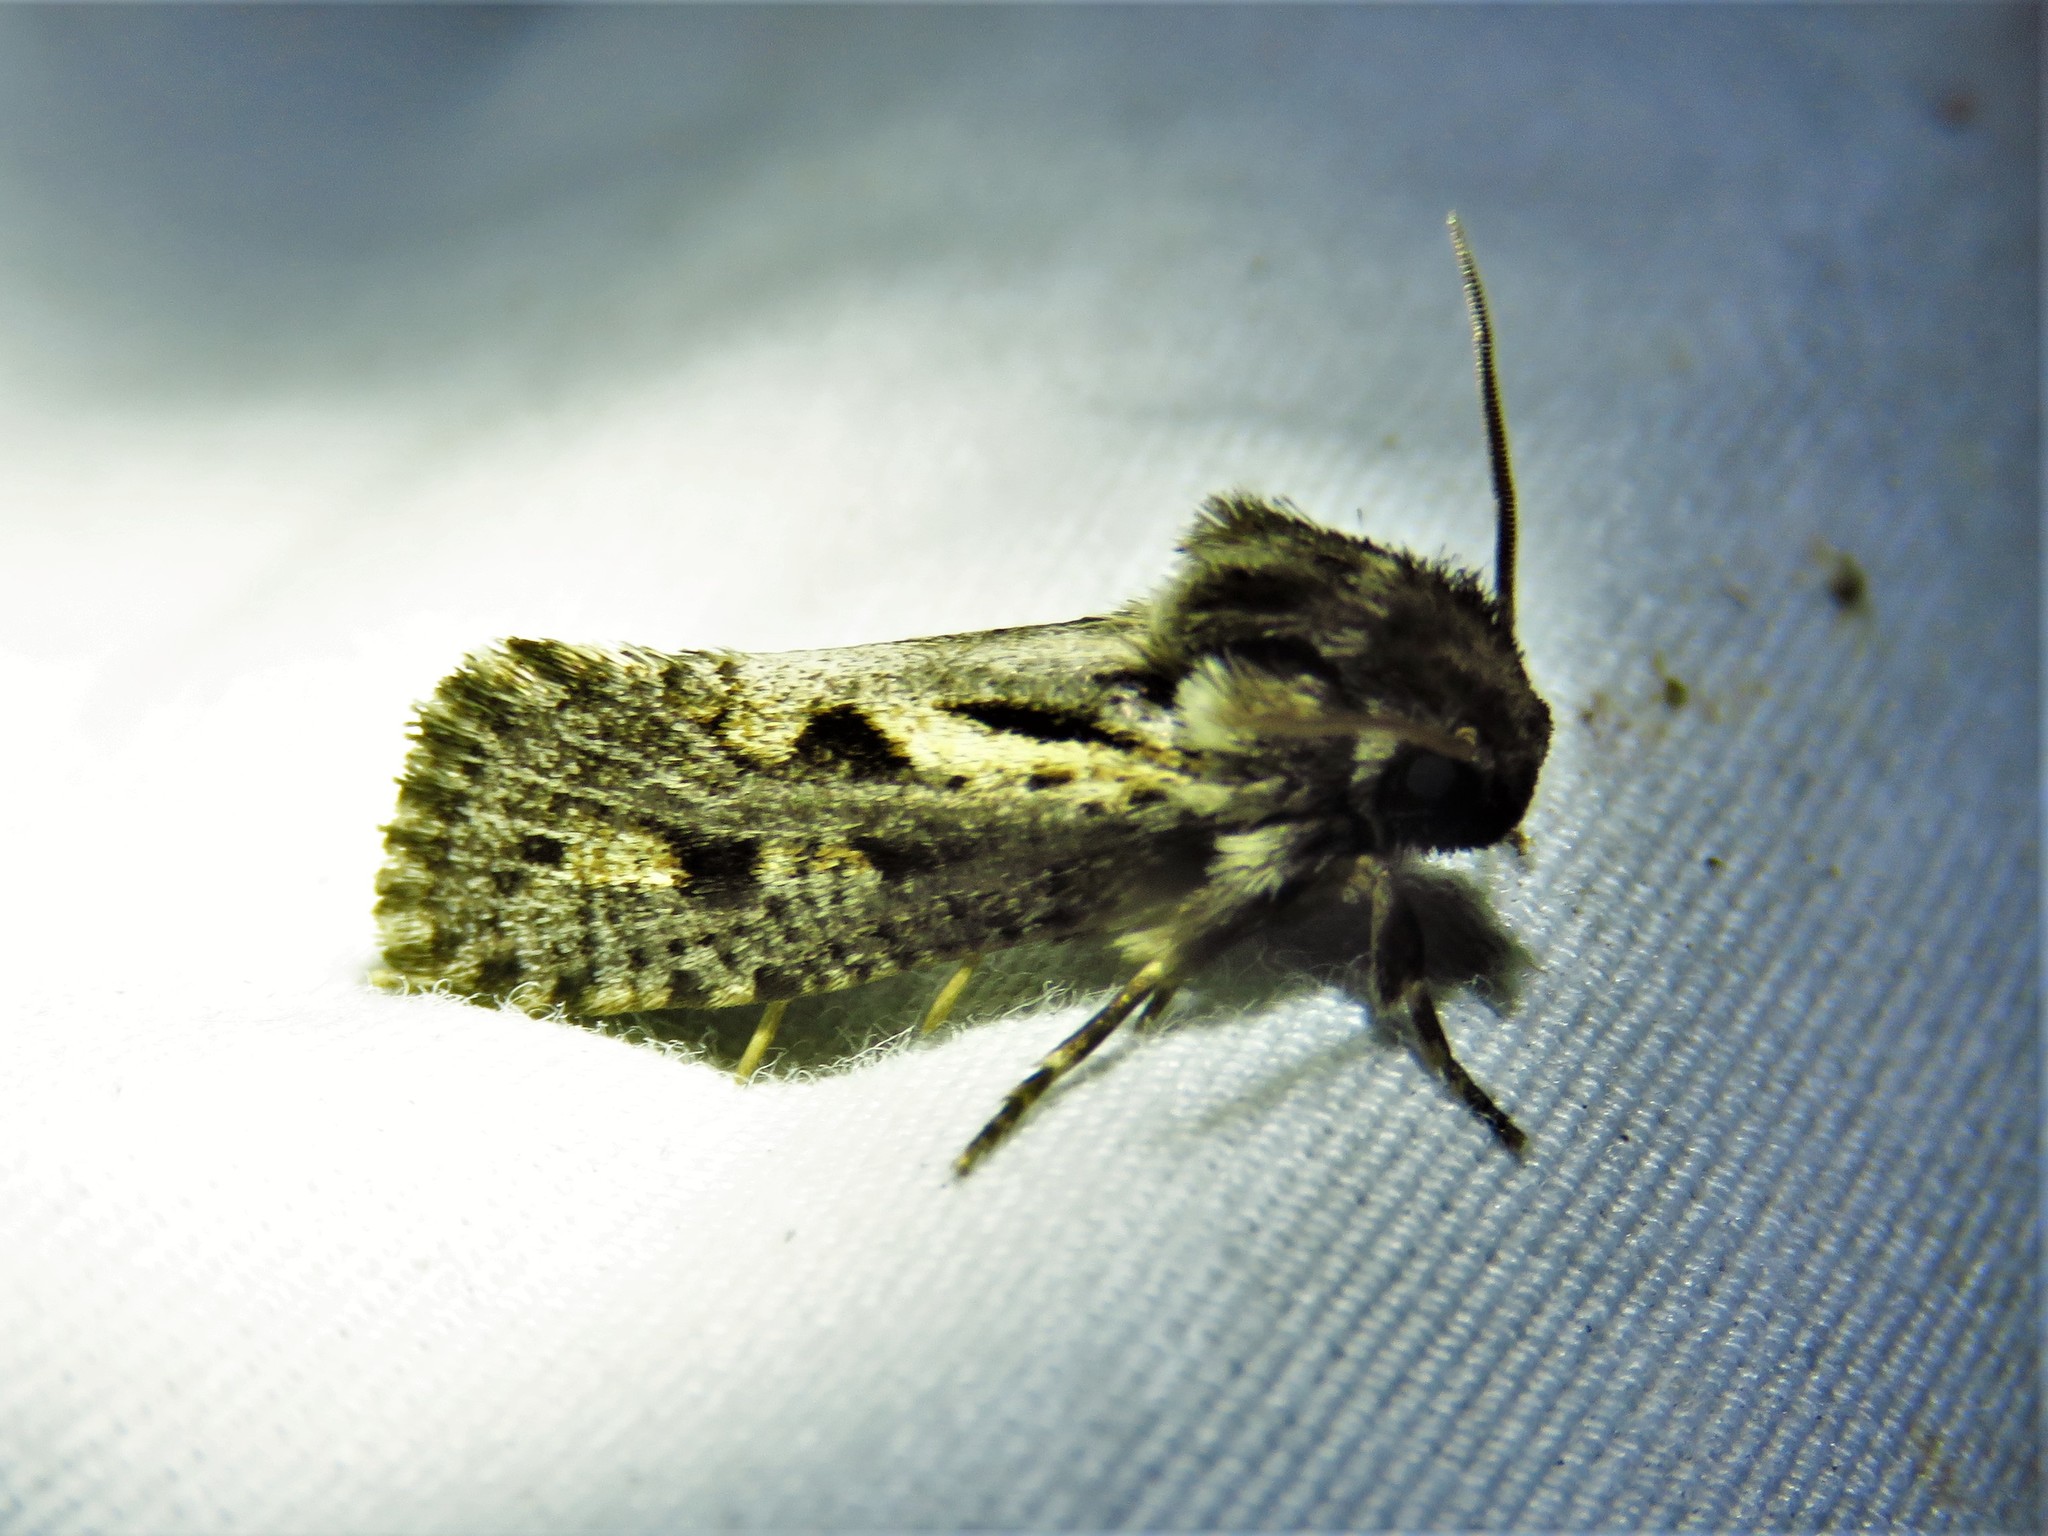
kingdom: Animalia
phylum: Arthropoda
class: Insecta
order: Lepidoptera
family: Tineidae
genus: Acrolophus
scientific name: Acrolophus popeanella
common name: Clemens' grass tubeworm moth
